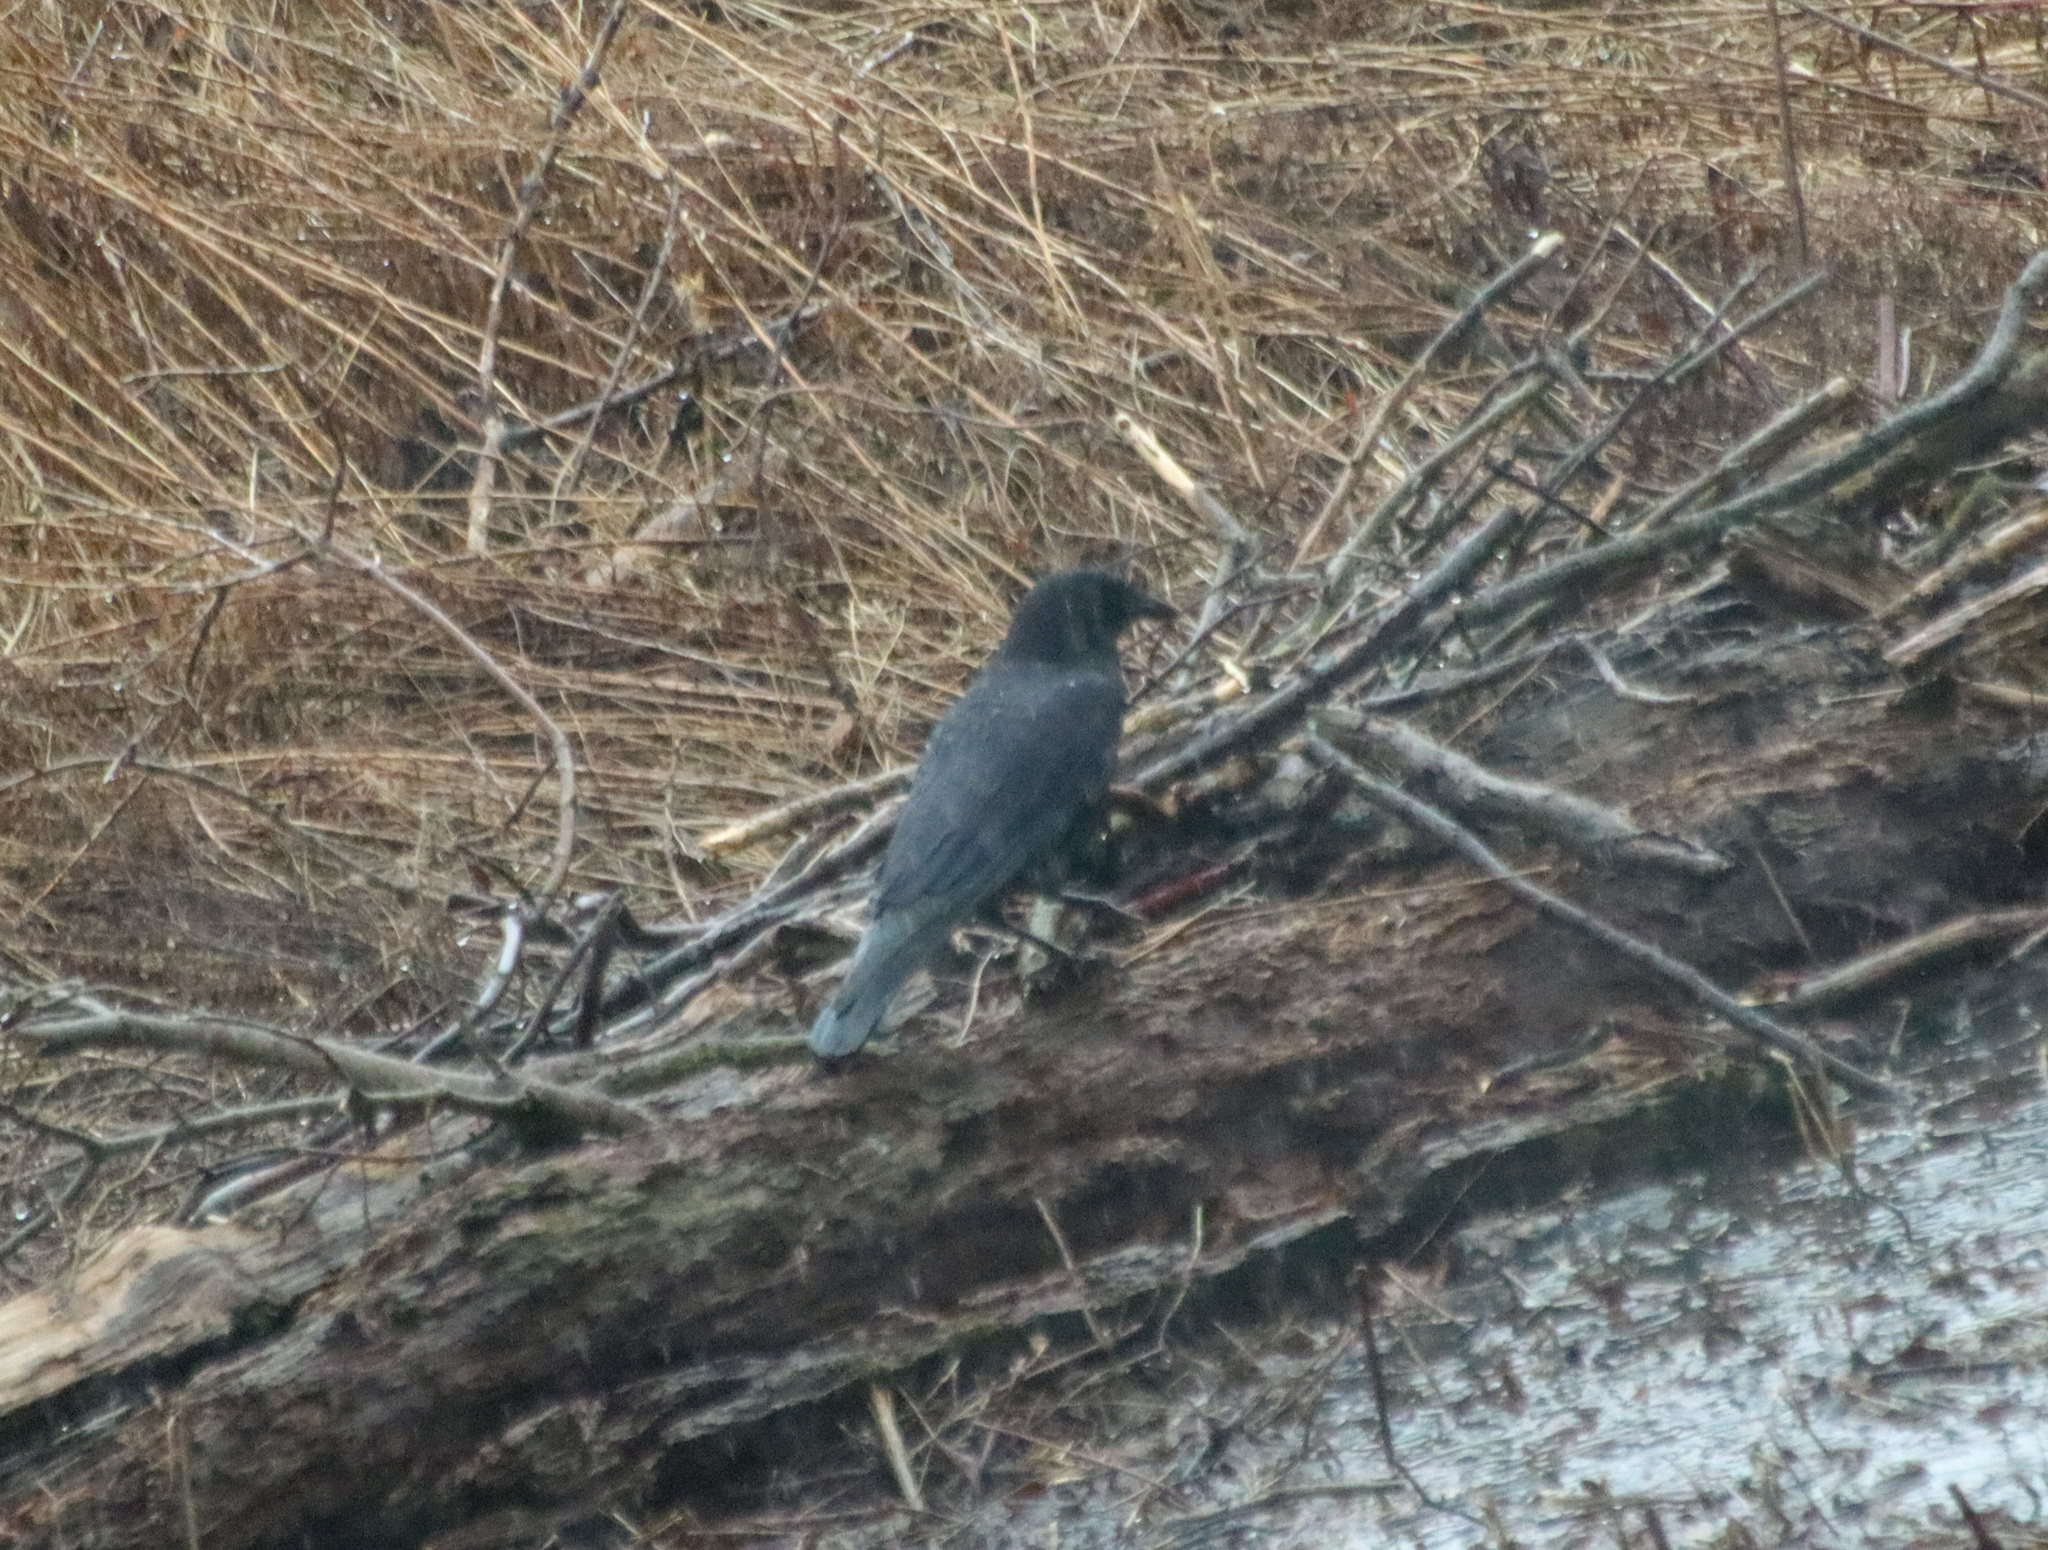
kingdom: Animalia
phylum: Chordata
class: Aves
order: Passeriformes
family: Corvidae
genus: Corvus
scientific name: Corvus brachyrhynchos
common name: American crow
